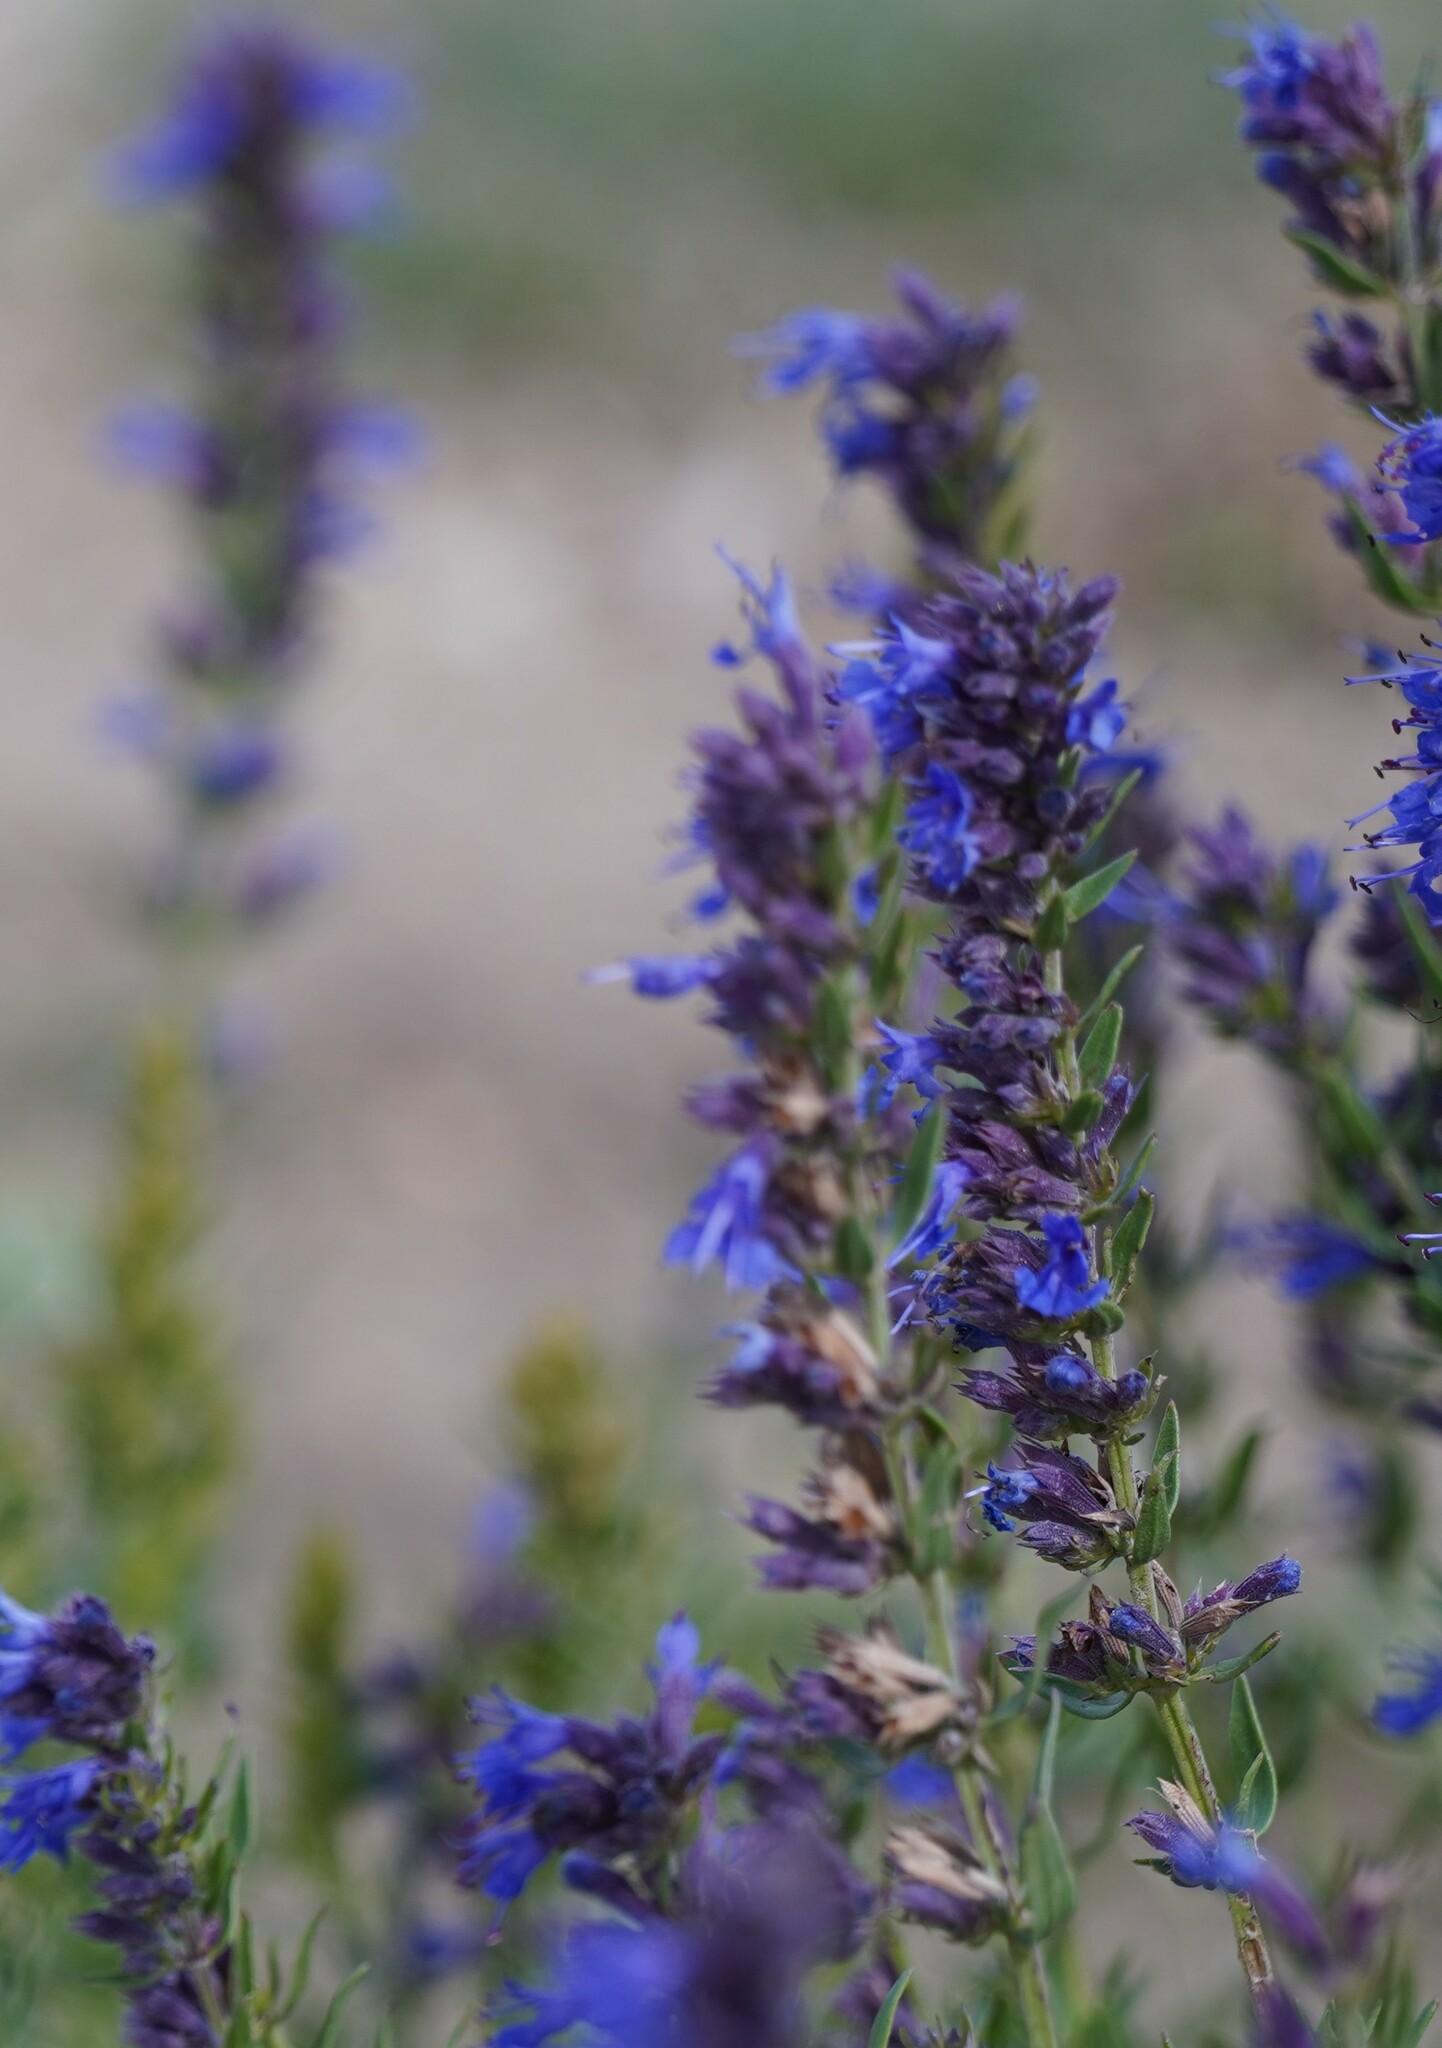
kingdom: Plantae
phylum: Tracheophyta
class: Magnoliopsida
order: Lamiales
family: Lamiaceae
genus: Hyssopus
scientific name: Hyssopus officinalis
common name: Hyssop
